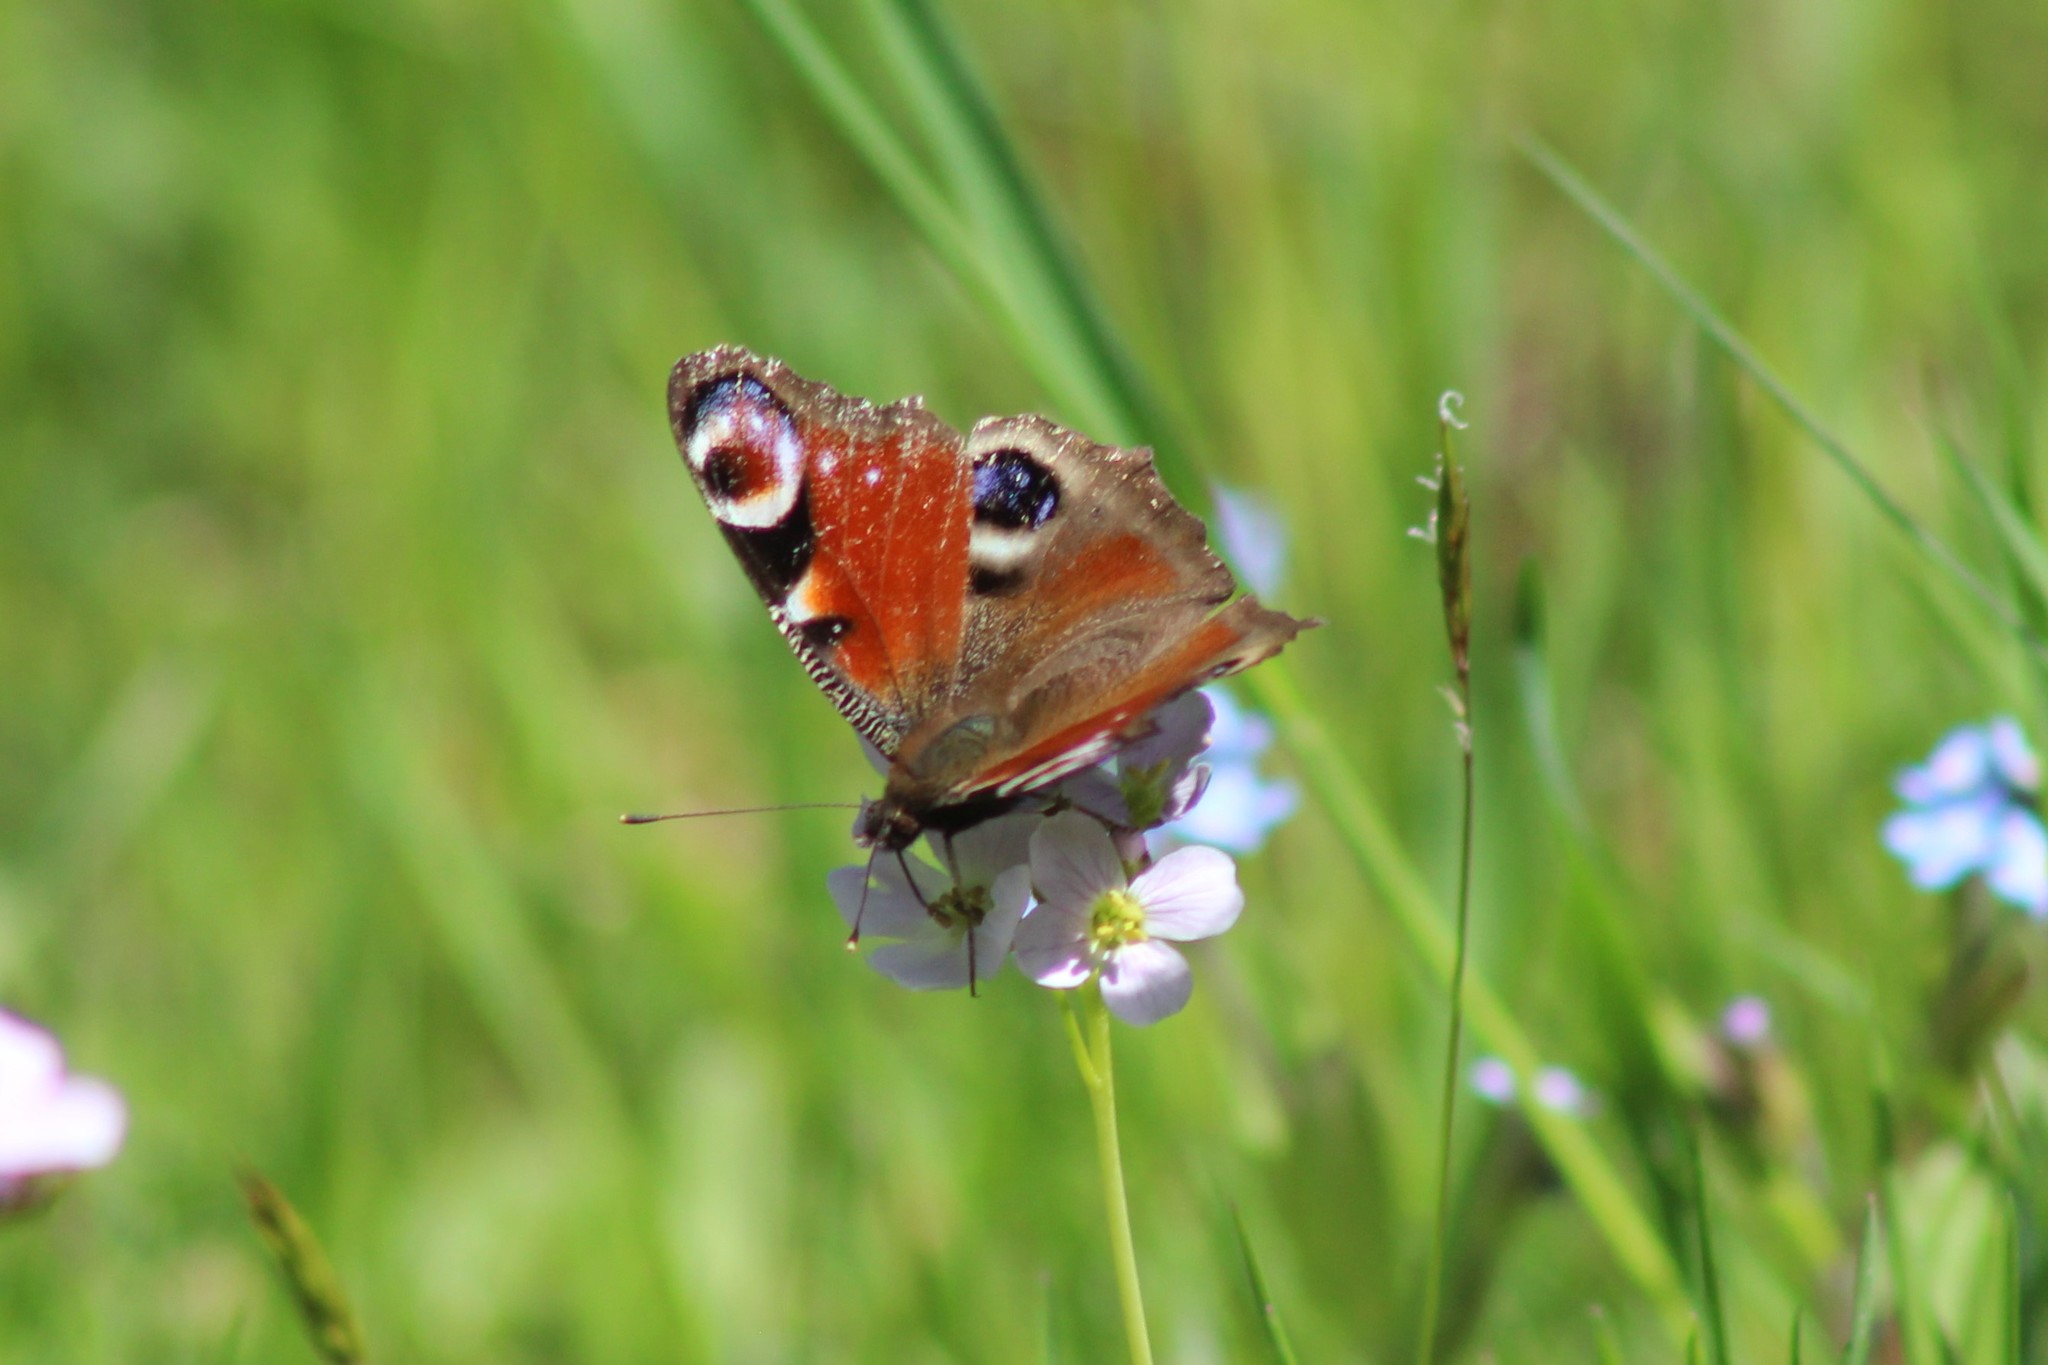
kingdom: Animalia
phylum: Arthropoda
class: Insecta
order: Lepidoptera
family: Nymphalidae
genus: Aglais
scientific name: Aglais io
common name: Peacock
